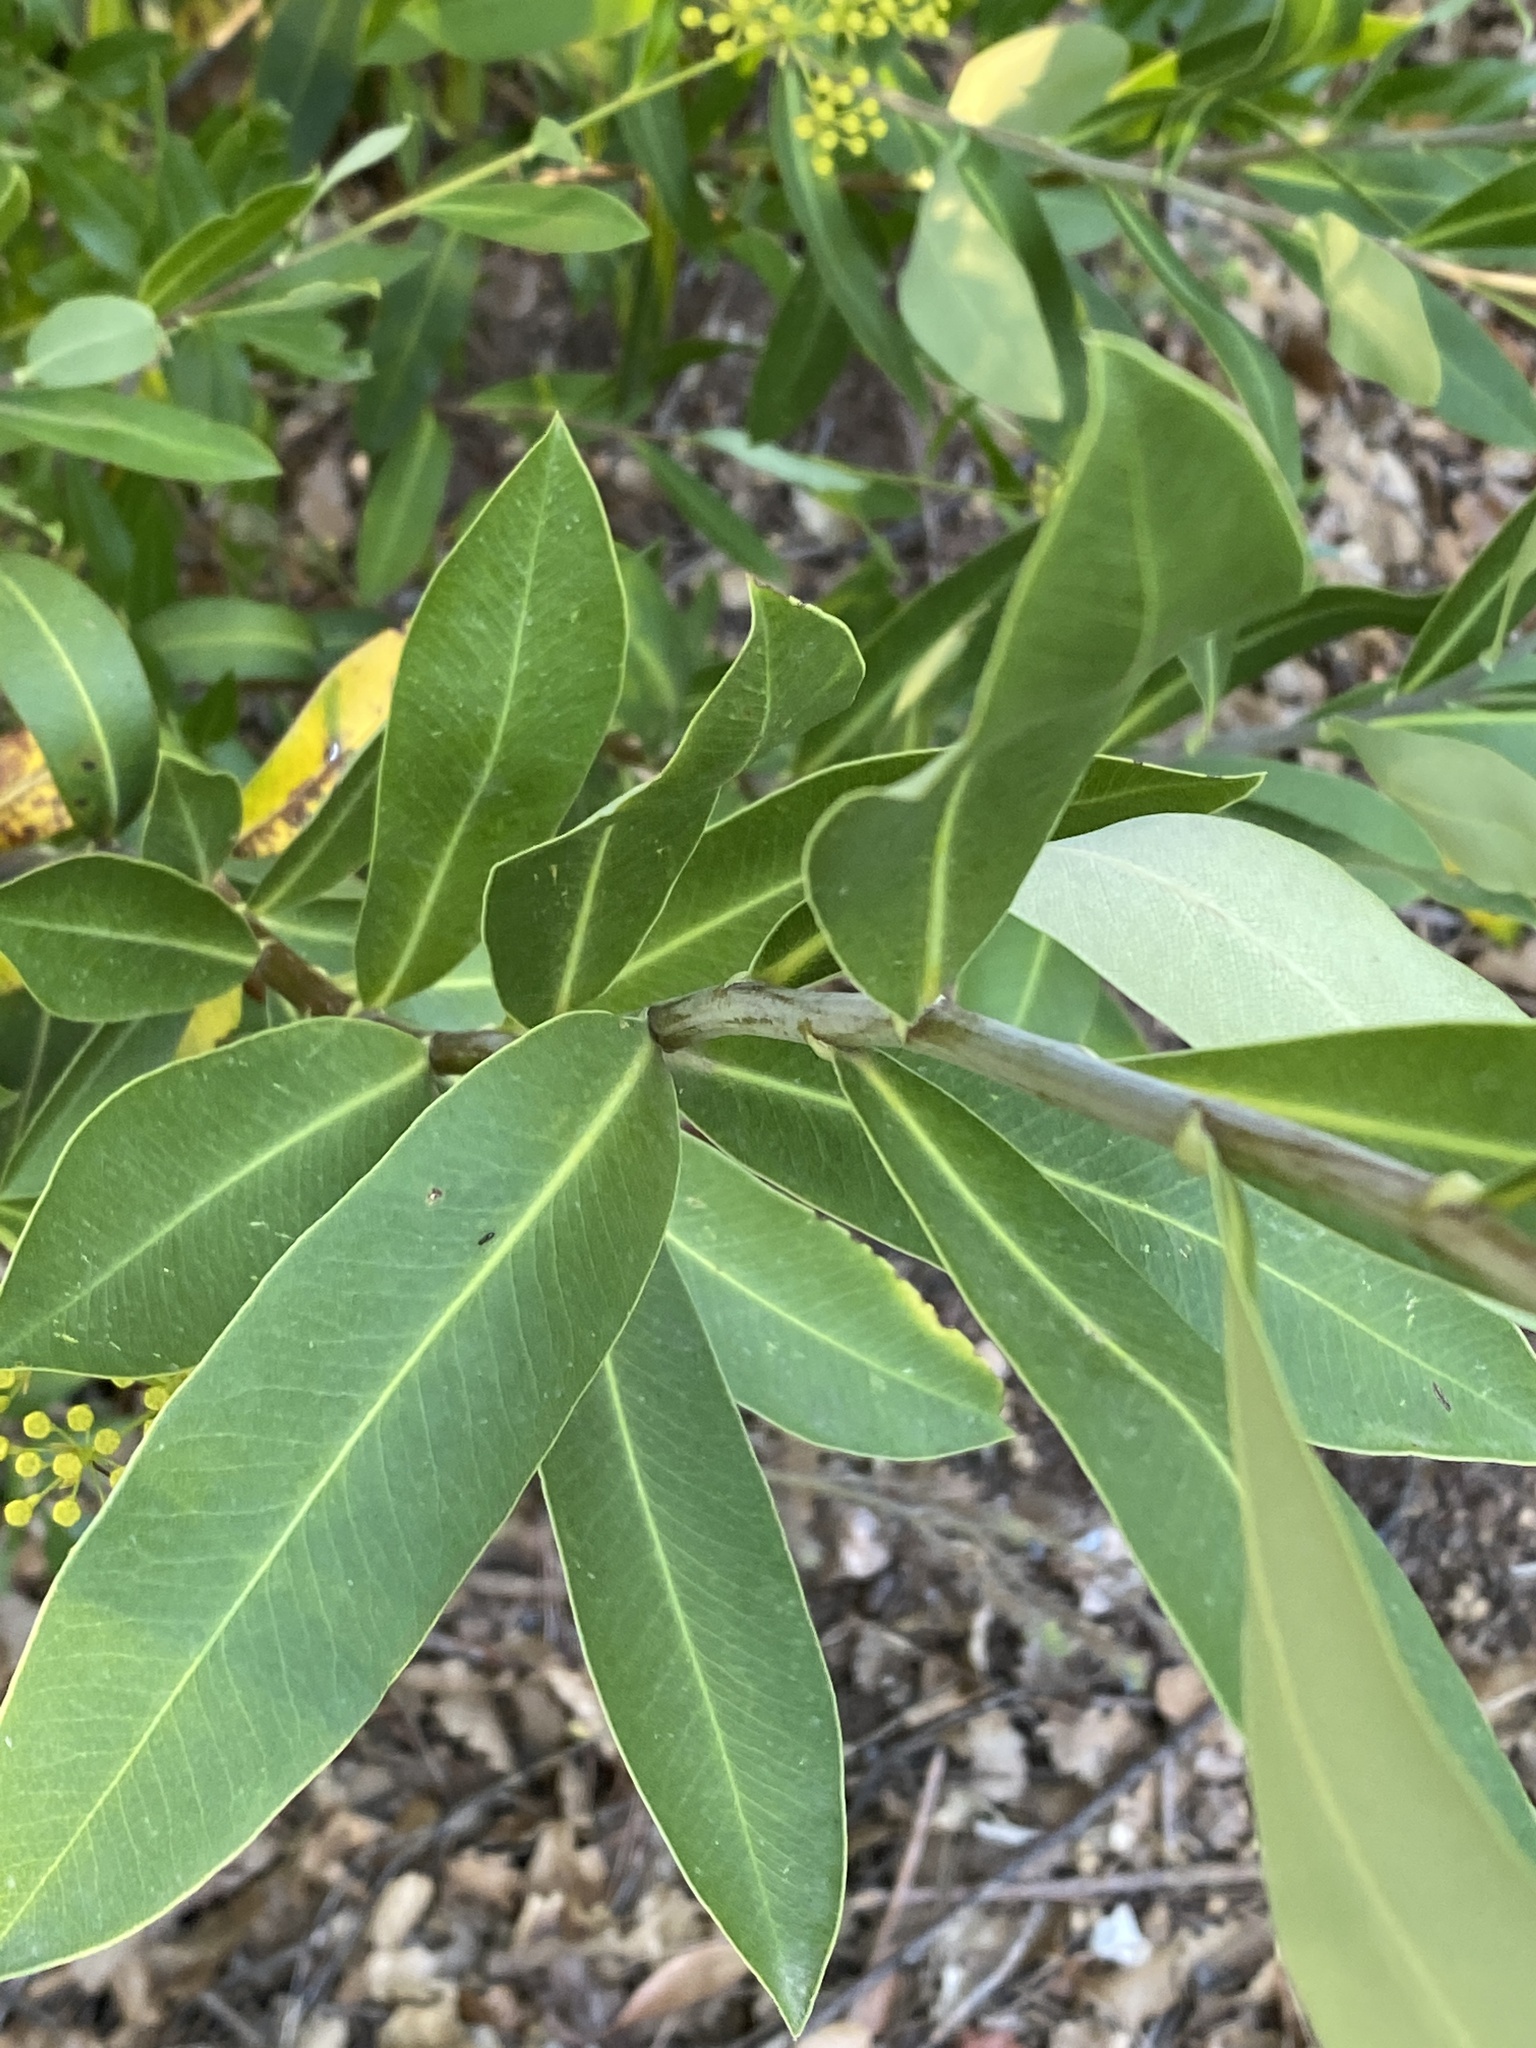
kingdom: Plantae
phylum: Tracheophyta
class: Magnoliopsida
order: Apiales
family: Apiaceae
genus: Bupleurum
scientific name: Bupleurum fruticosum
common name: Shrubby hare's-ear
